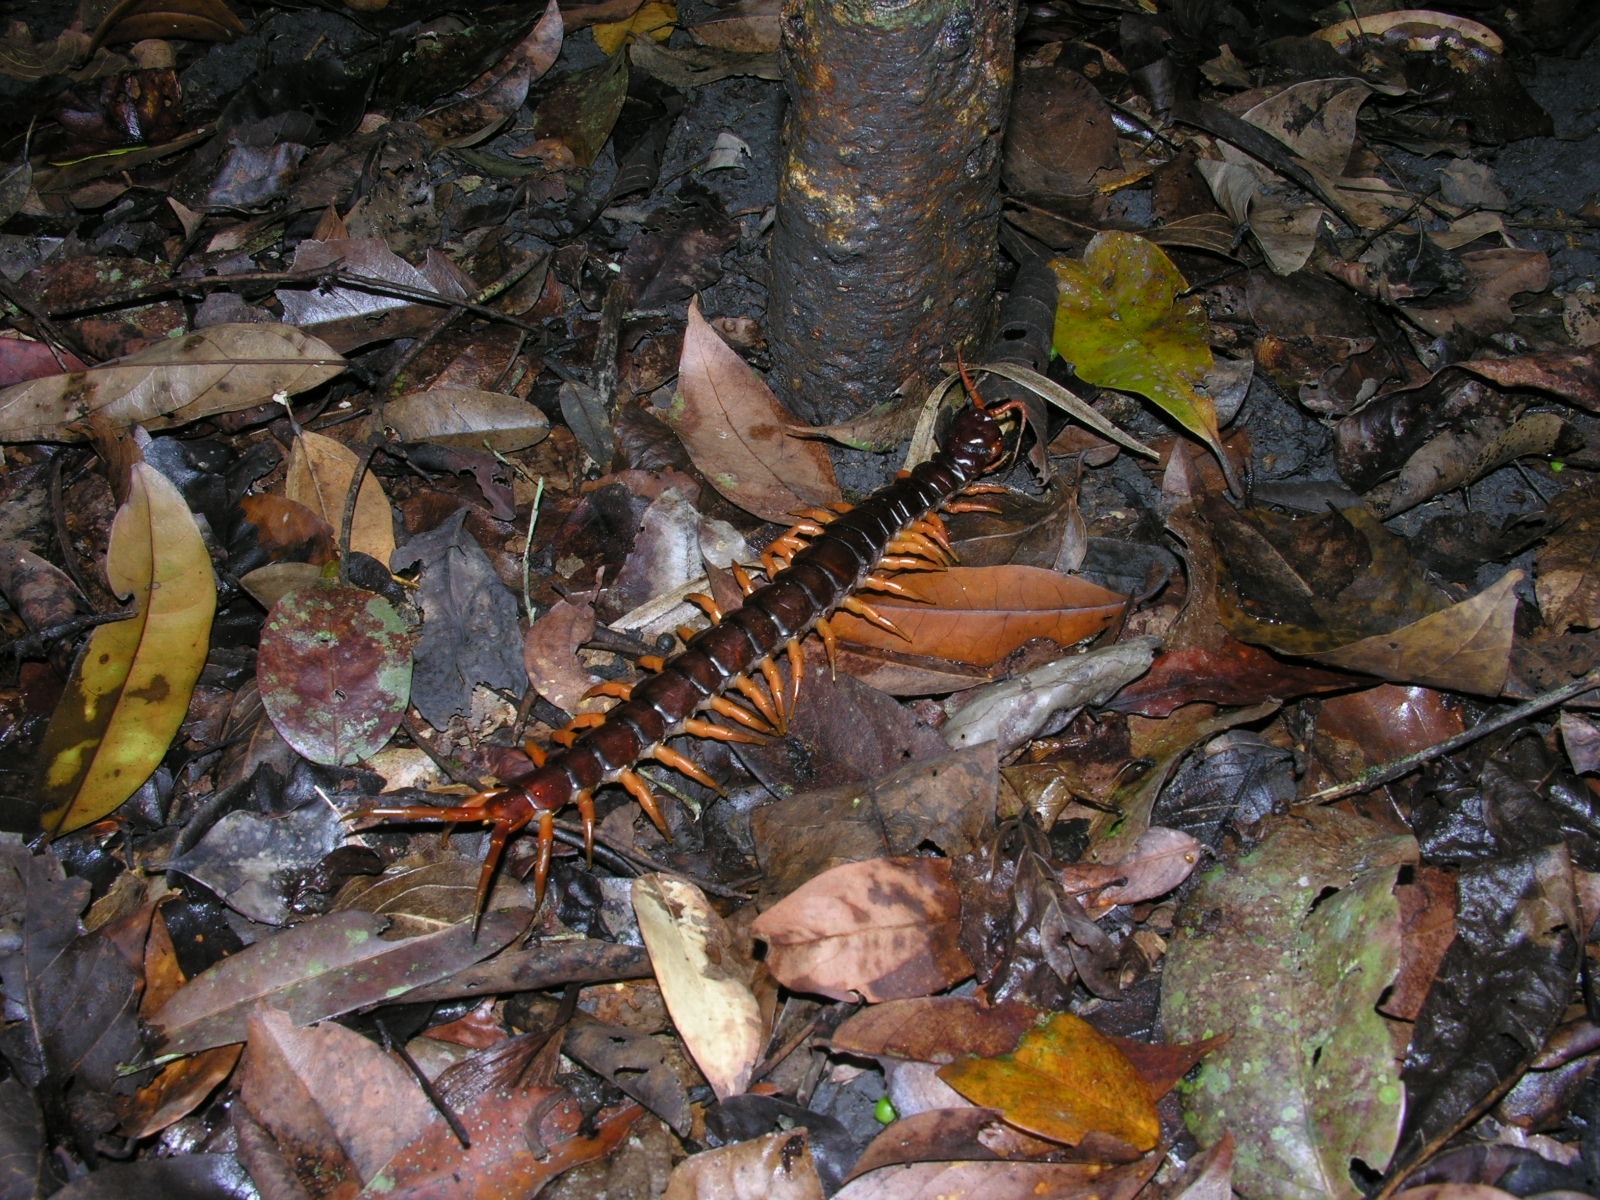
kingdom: Animalia
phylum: Arthropoda
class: Chilopoda
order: Scolopendromorpha
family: Scolopendridae
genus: Scolopendra
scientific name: Scolopendra dehaani
